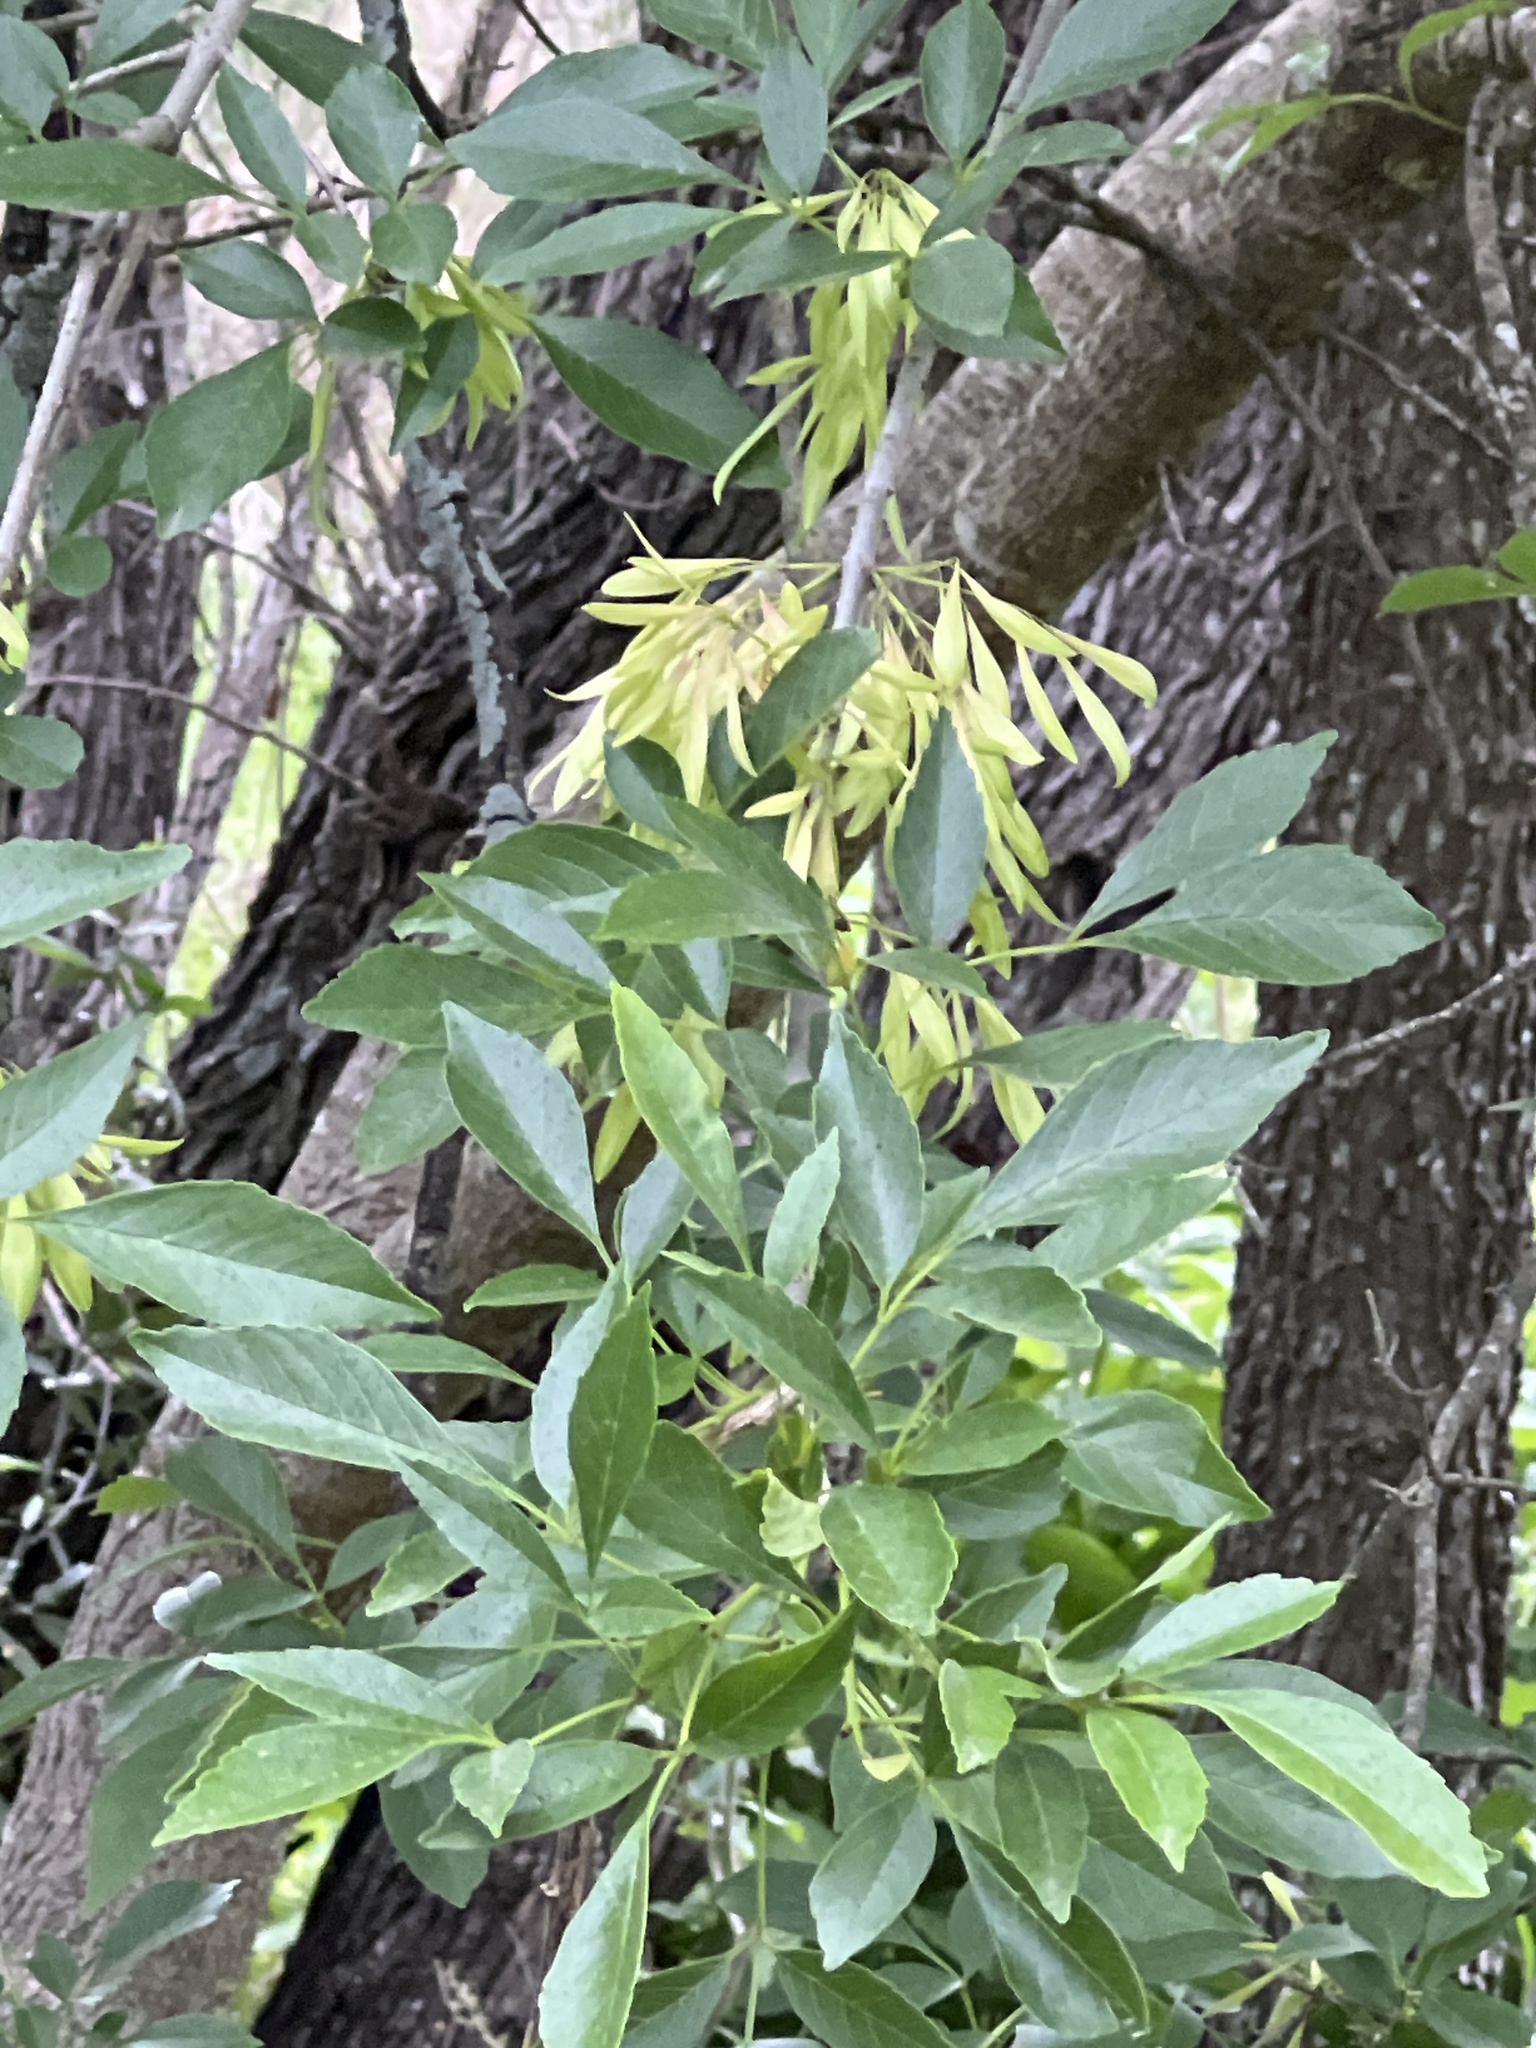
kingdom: Plantae
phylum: Tracheophyta
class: Magnoliopsida
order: Lamiales
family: Oleaceae
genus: Fraxinus
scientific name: Fraxinus berlandieriana
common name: Berlandier ash
